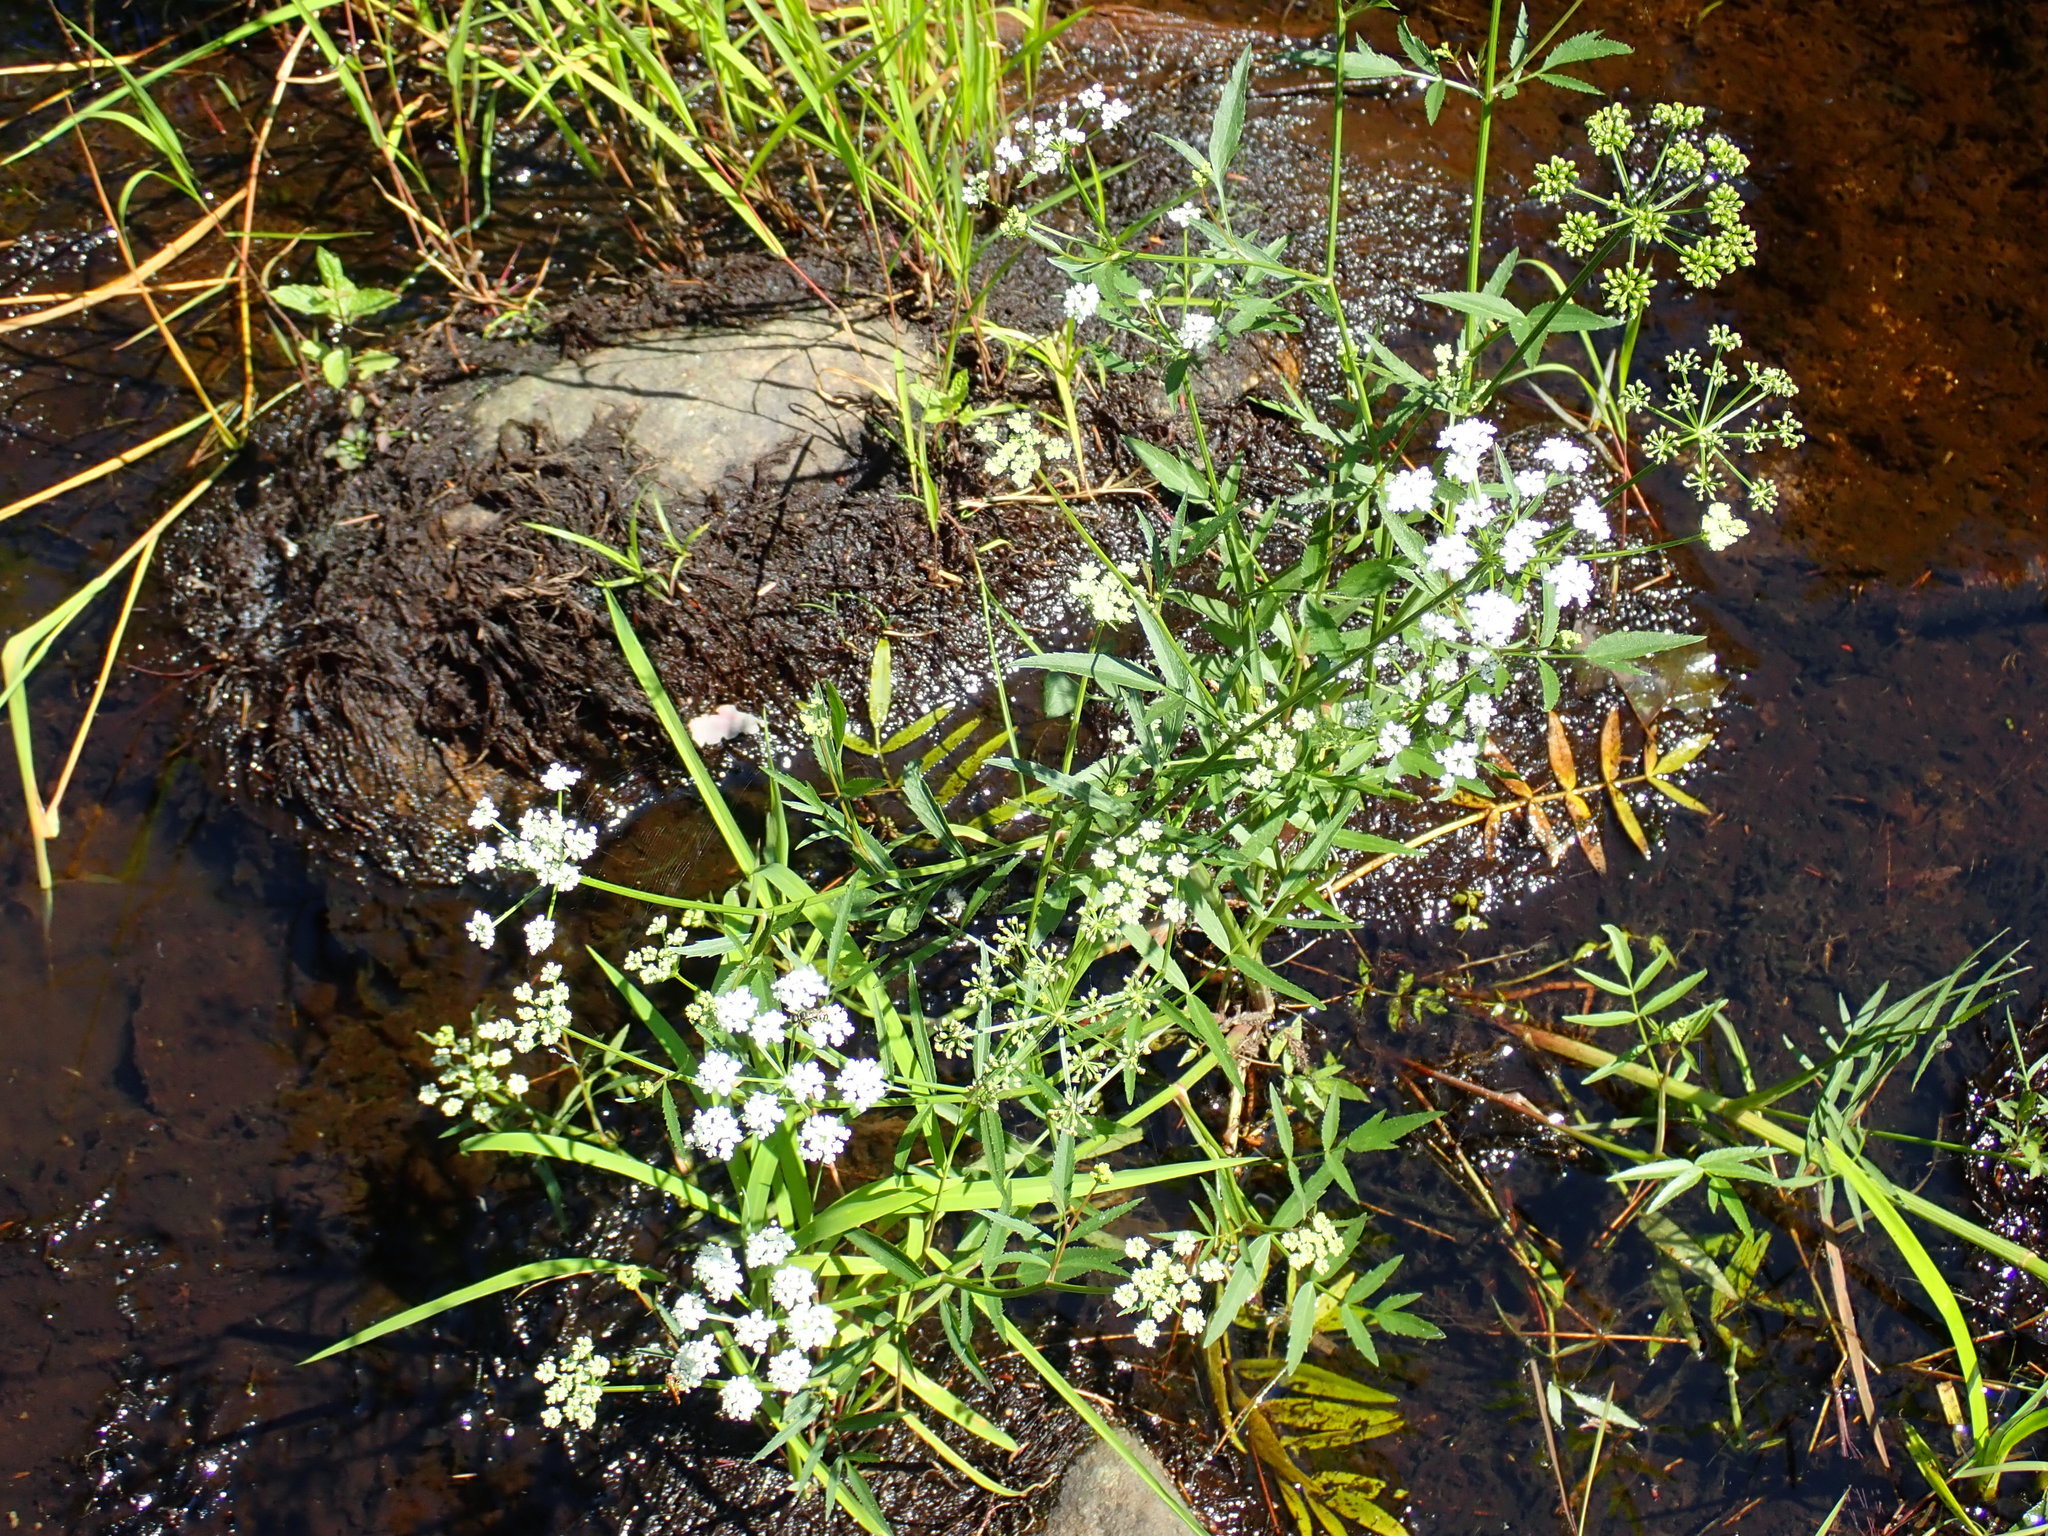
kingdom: Plantae
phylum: Tracheophyta
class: Magnoliopsida
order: Apiales
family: Apiaceae
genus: Sium
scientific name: Sium suave
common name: Hemlock water-parsnip
